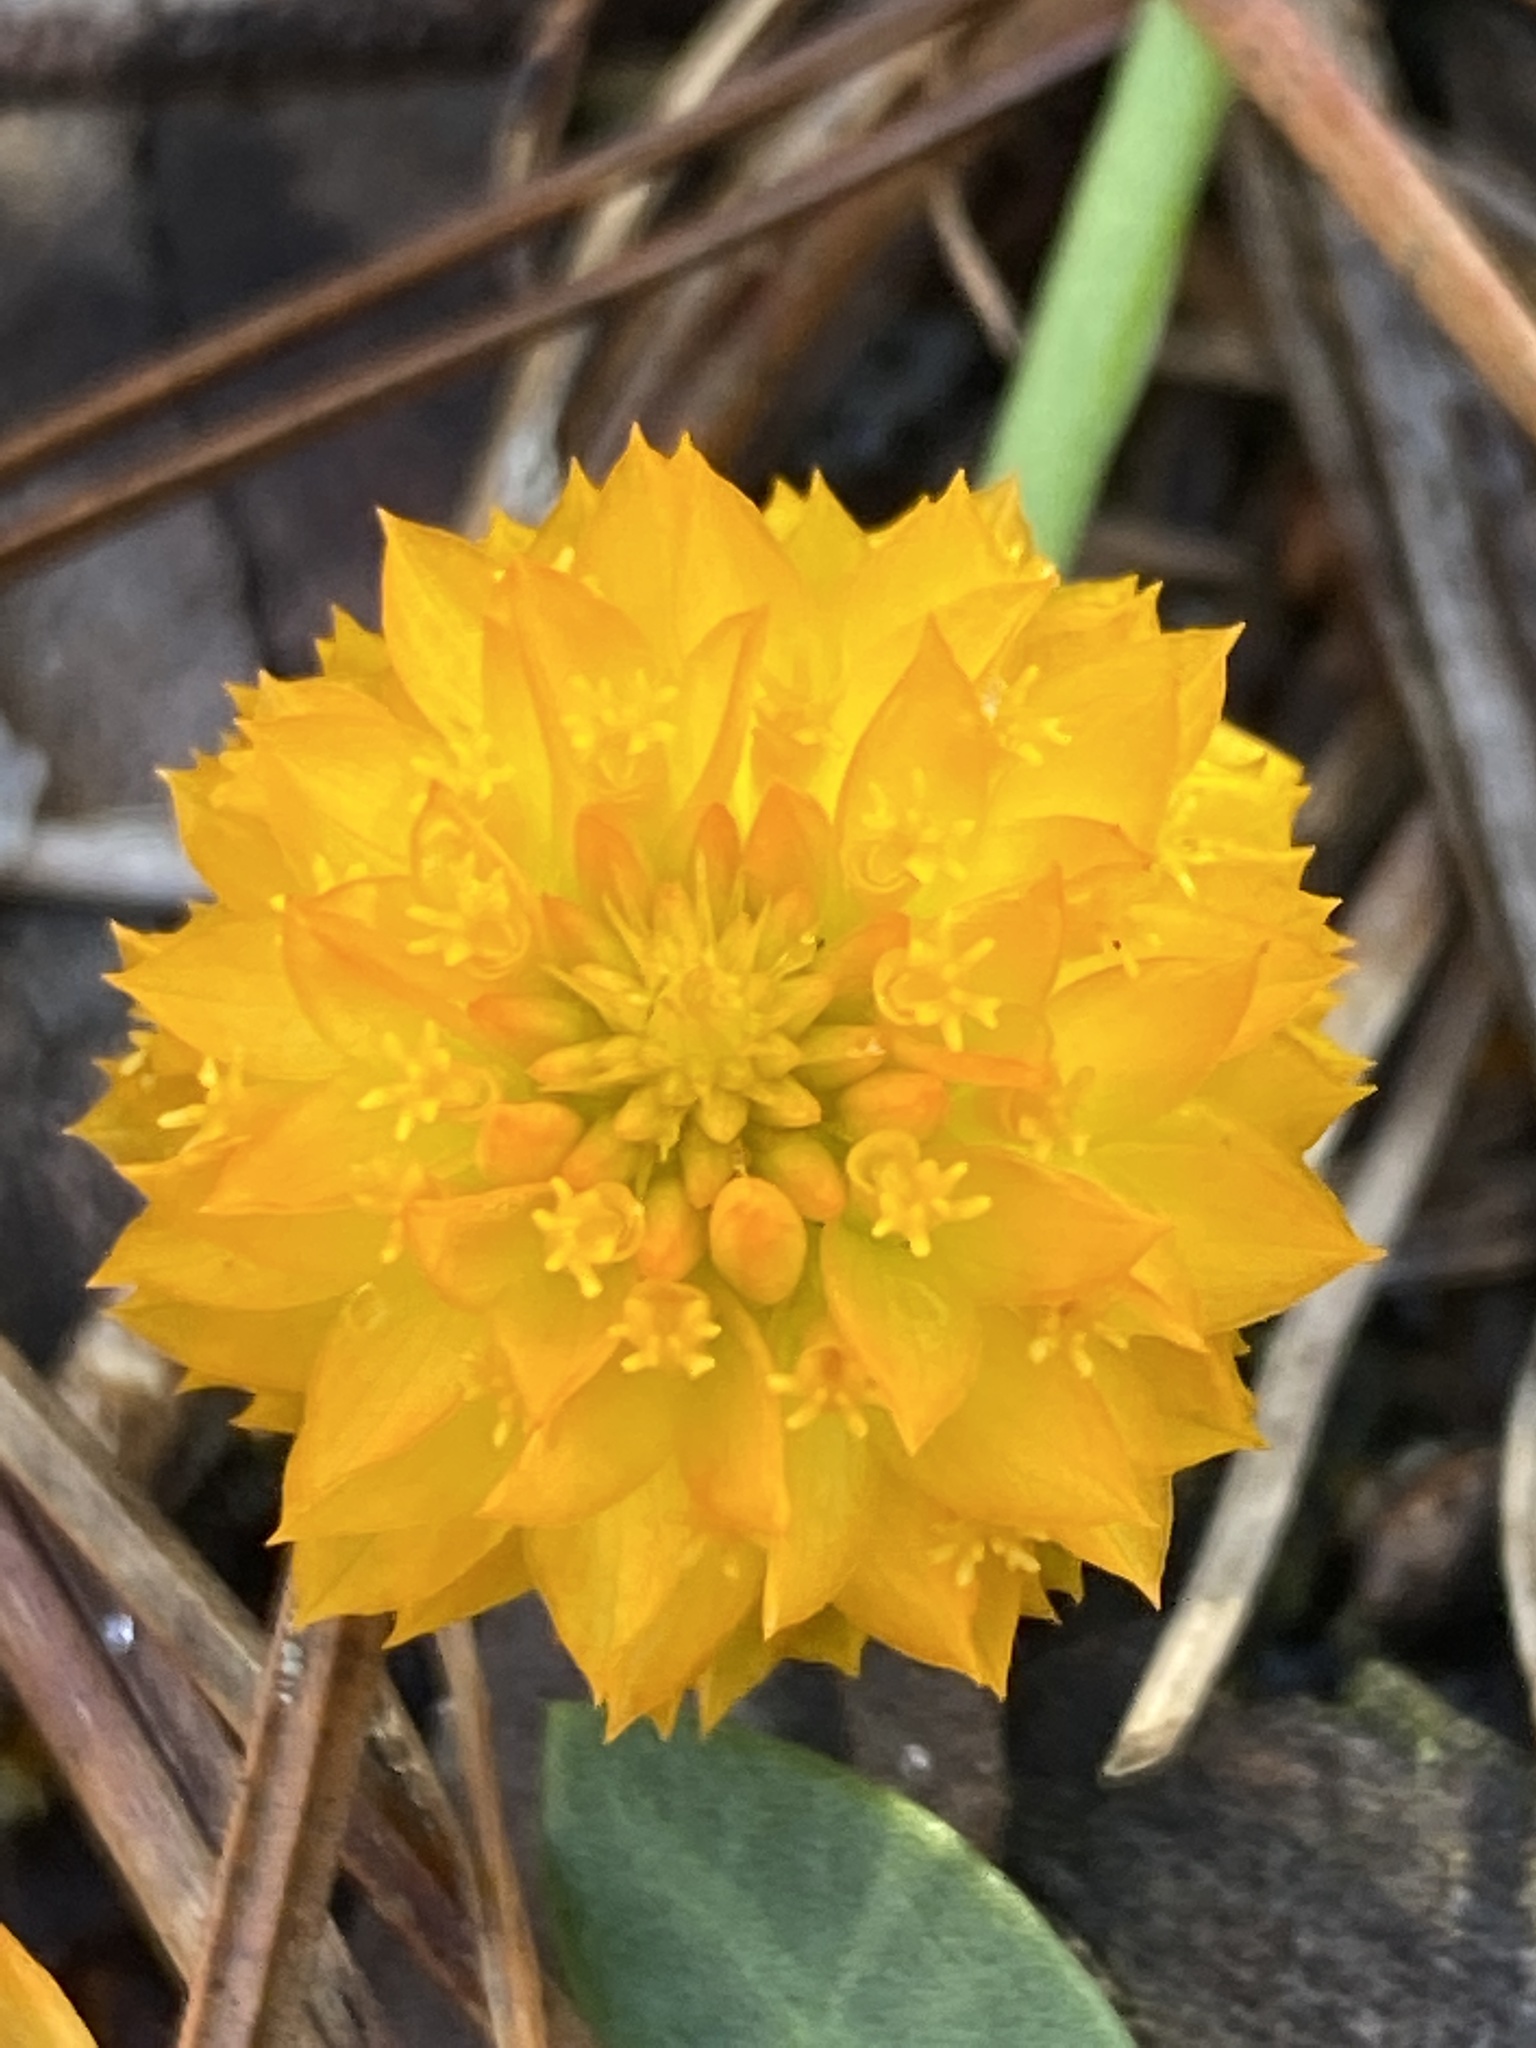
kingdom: Plantae
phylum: Tracheophyta
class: Magnoliopsida
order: Fabales
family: Polygalaceae
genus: Polygala
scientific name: Polygala lutea
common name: Orange milkwort
